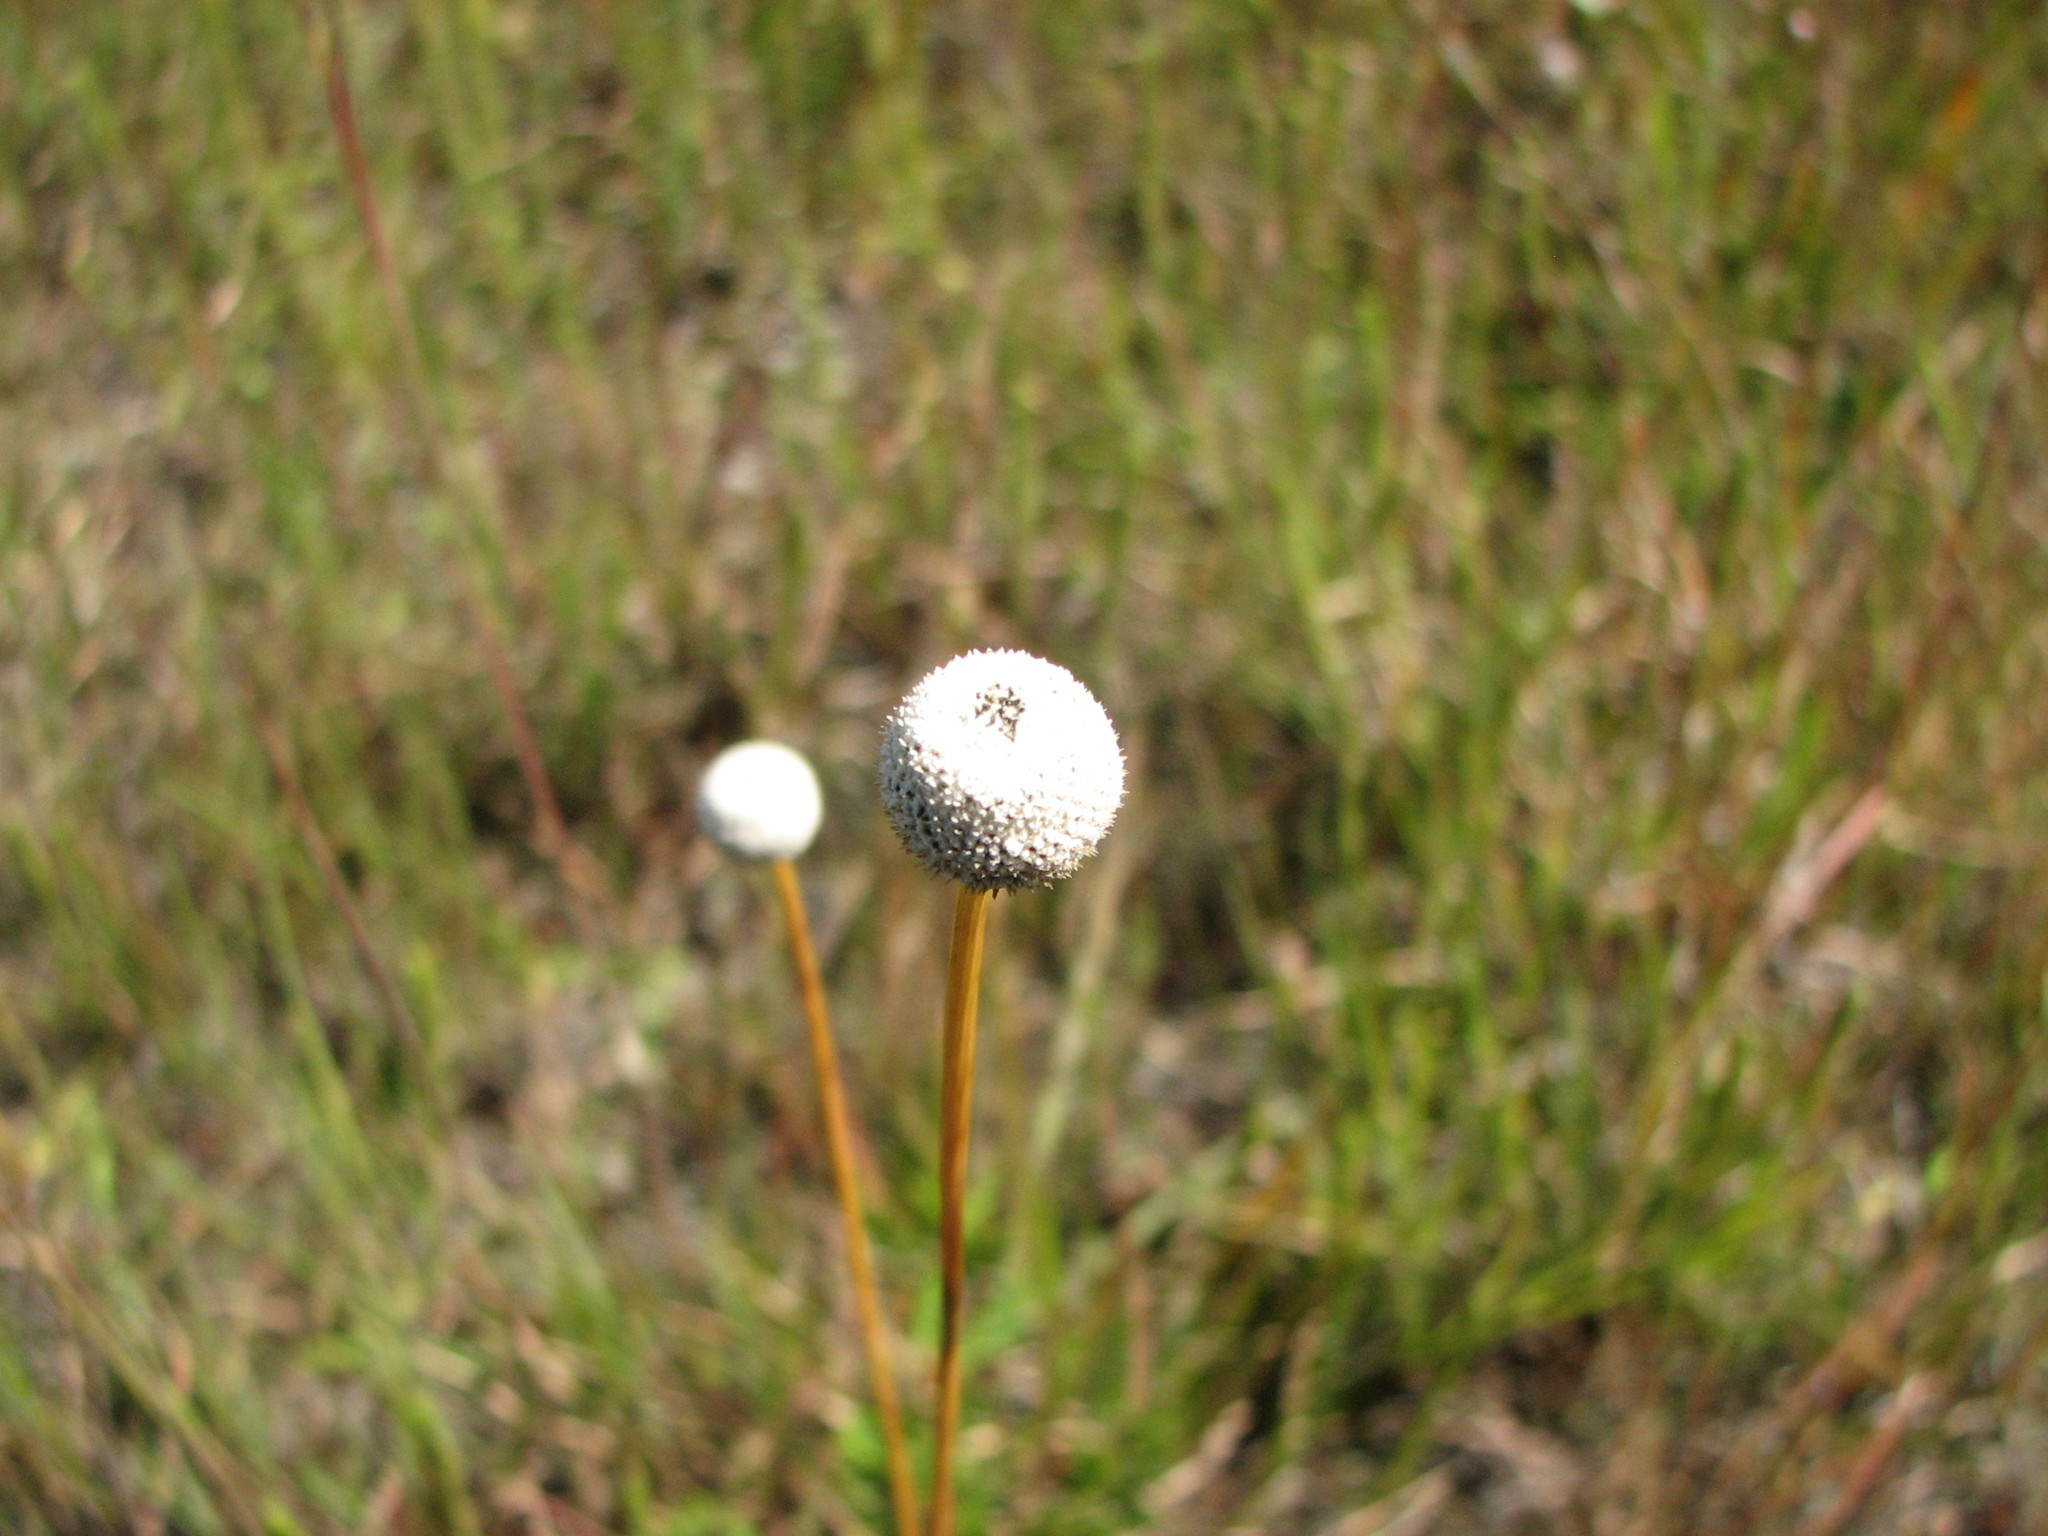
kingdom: Plantae
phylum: Tracheophyta
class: Liliopsida
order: Poales
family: Eriocaulaceae
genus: Eriocaulon
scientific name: Eriocaulon decangulare
